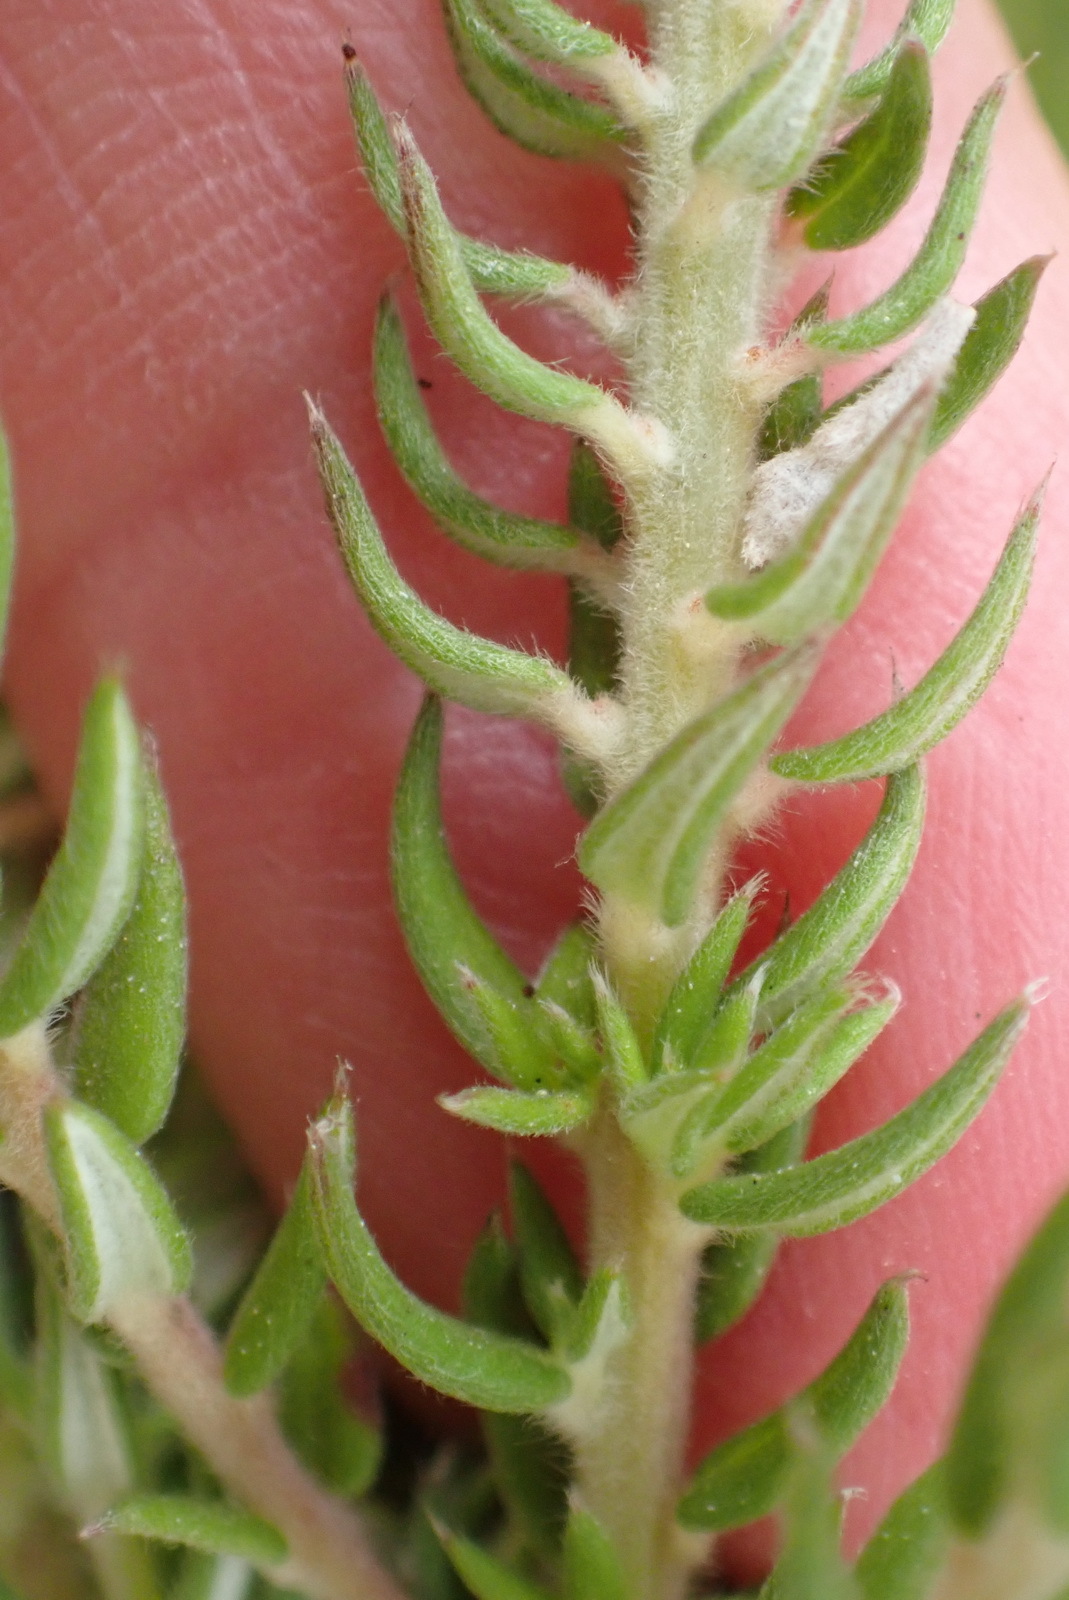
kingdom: Plantae
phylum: Tracheophyta
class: Magnoliopsida
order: Rosales
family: Rhamnaceae
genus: Phylica
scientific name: Phylica pinea
